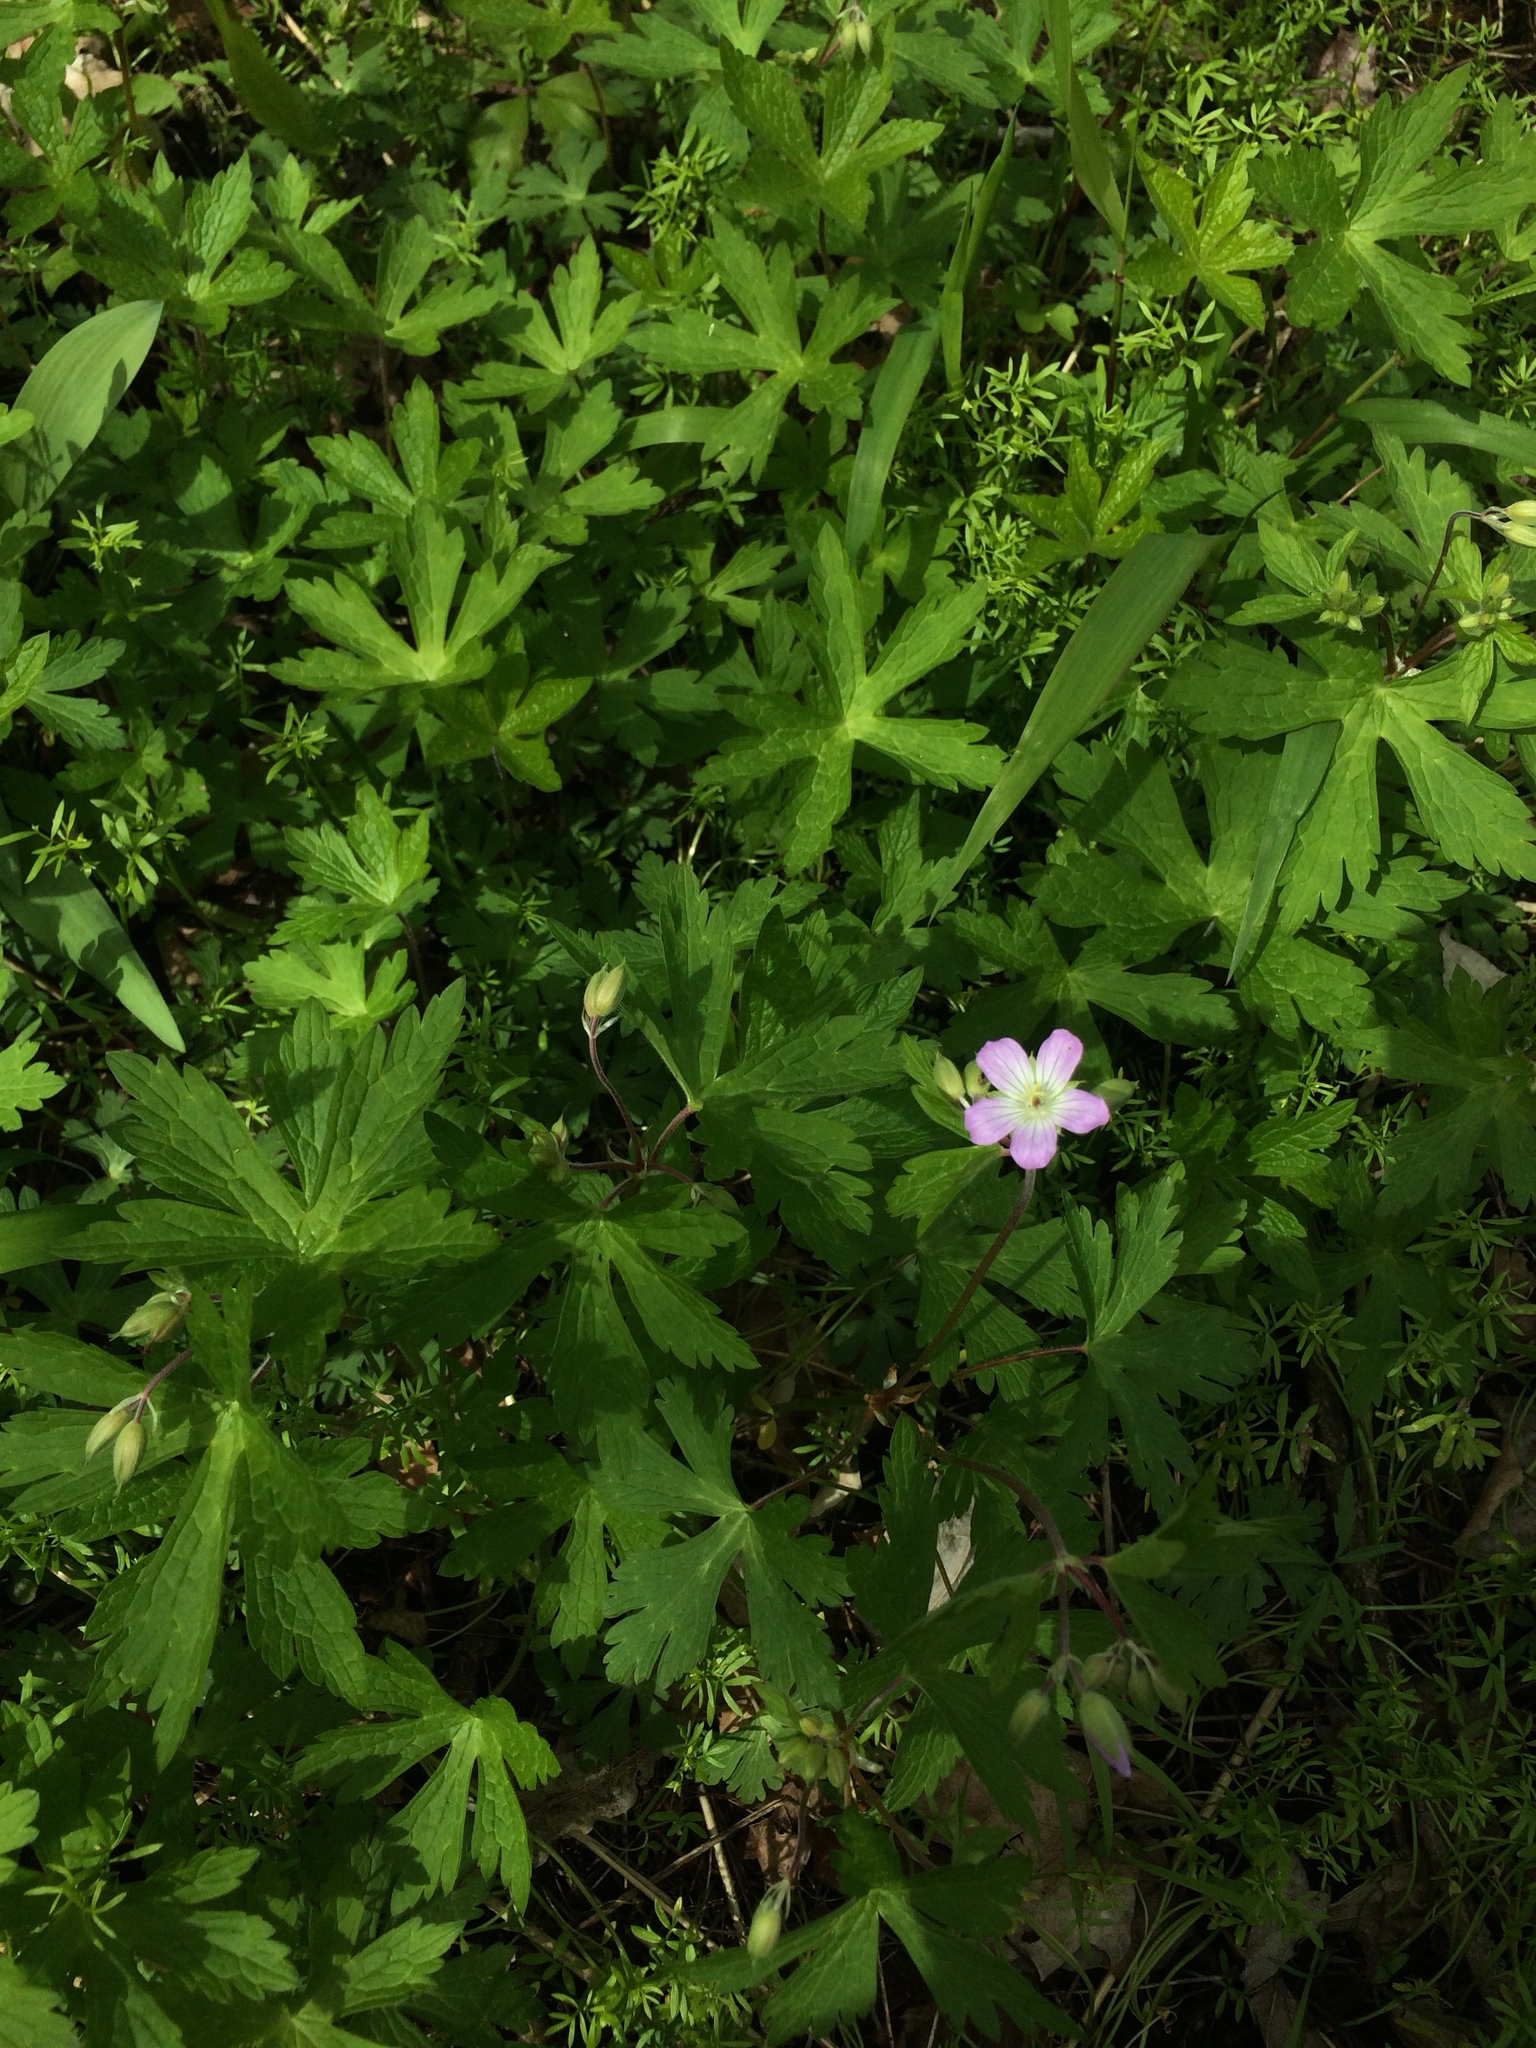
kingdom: Plantae
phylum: Tracheophyta
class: Magnoliopsida
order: Geraniales
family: Geraniaceae
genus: Geranium
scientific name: Geranium maculatum
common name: Spotted geranium
